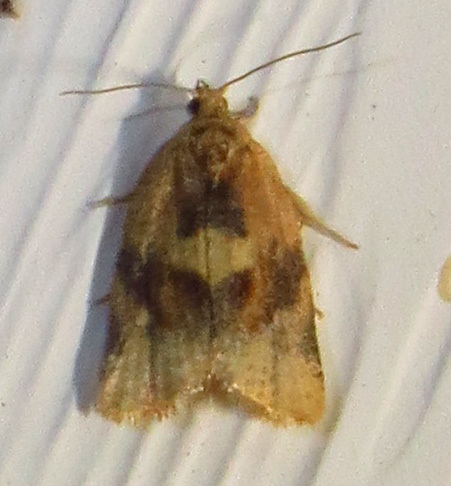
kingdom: Animalia
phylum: Arthropoda
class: Insecta
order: Lepidoptera
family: Tortricidae
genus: Argyrotaenia
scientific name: Argyrotaenia velutinana
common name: Red-banded leafroller moth
